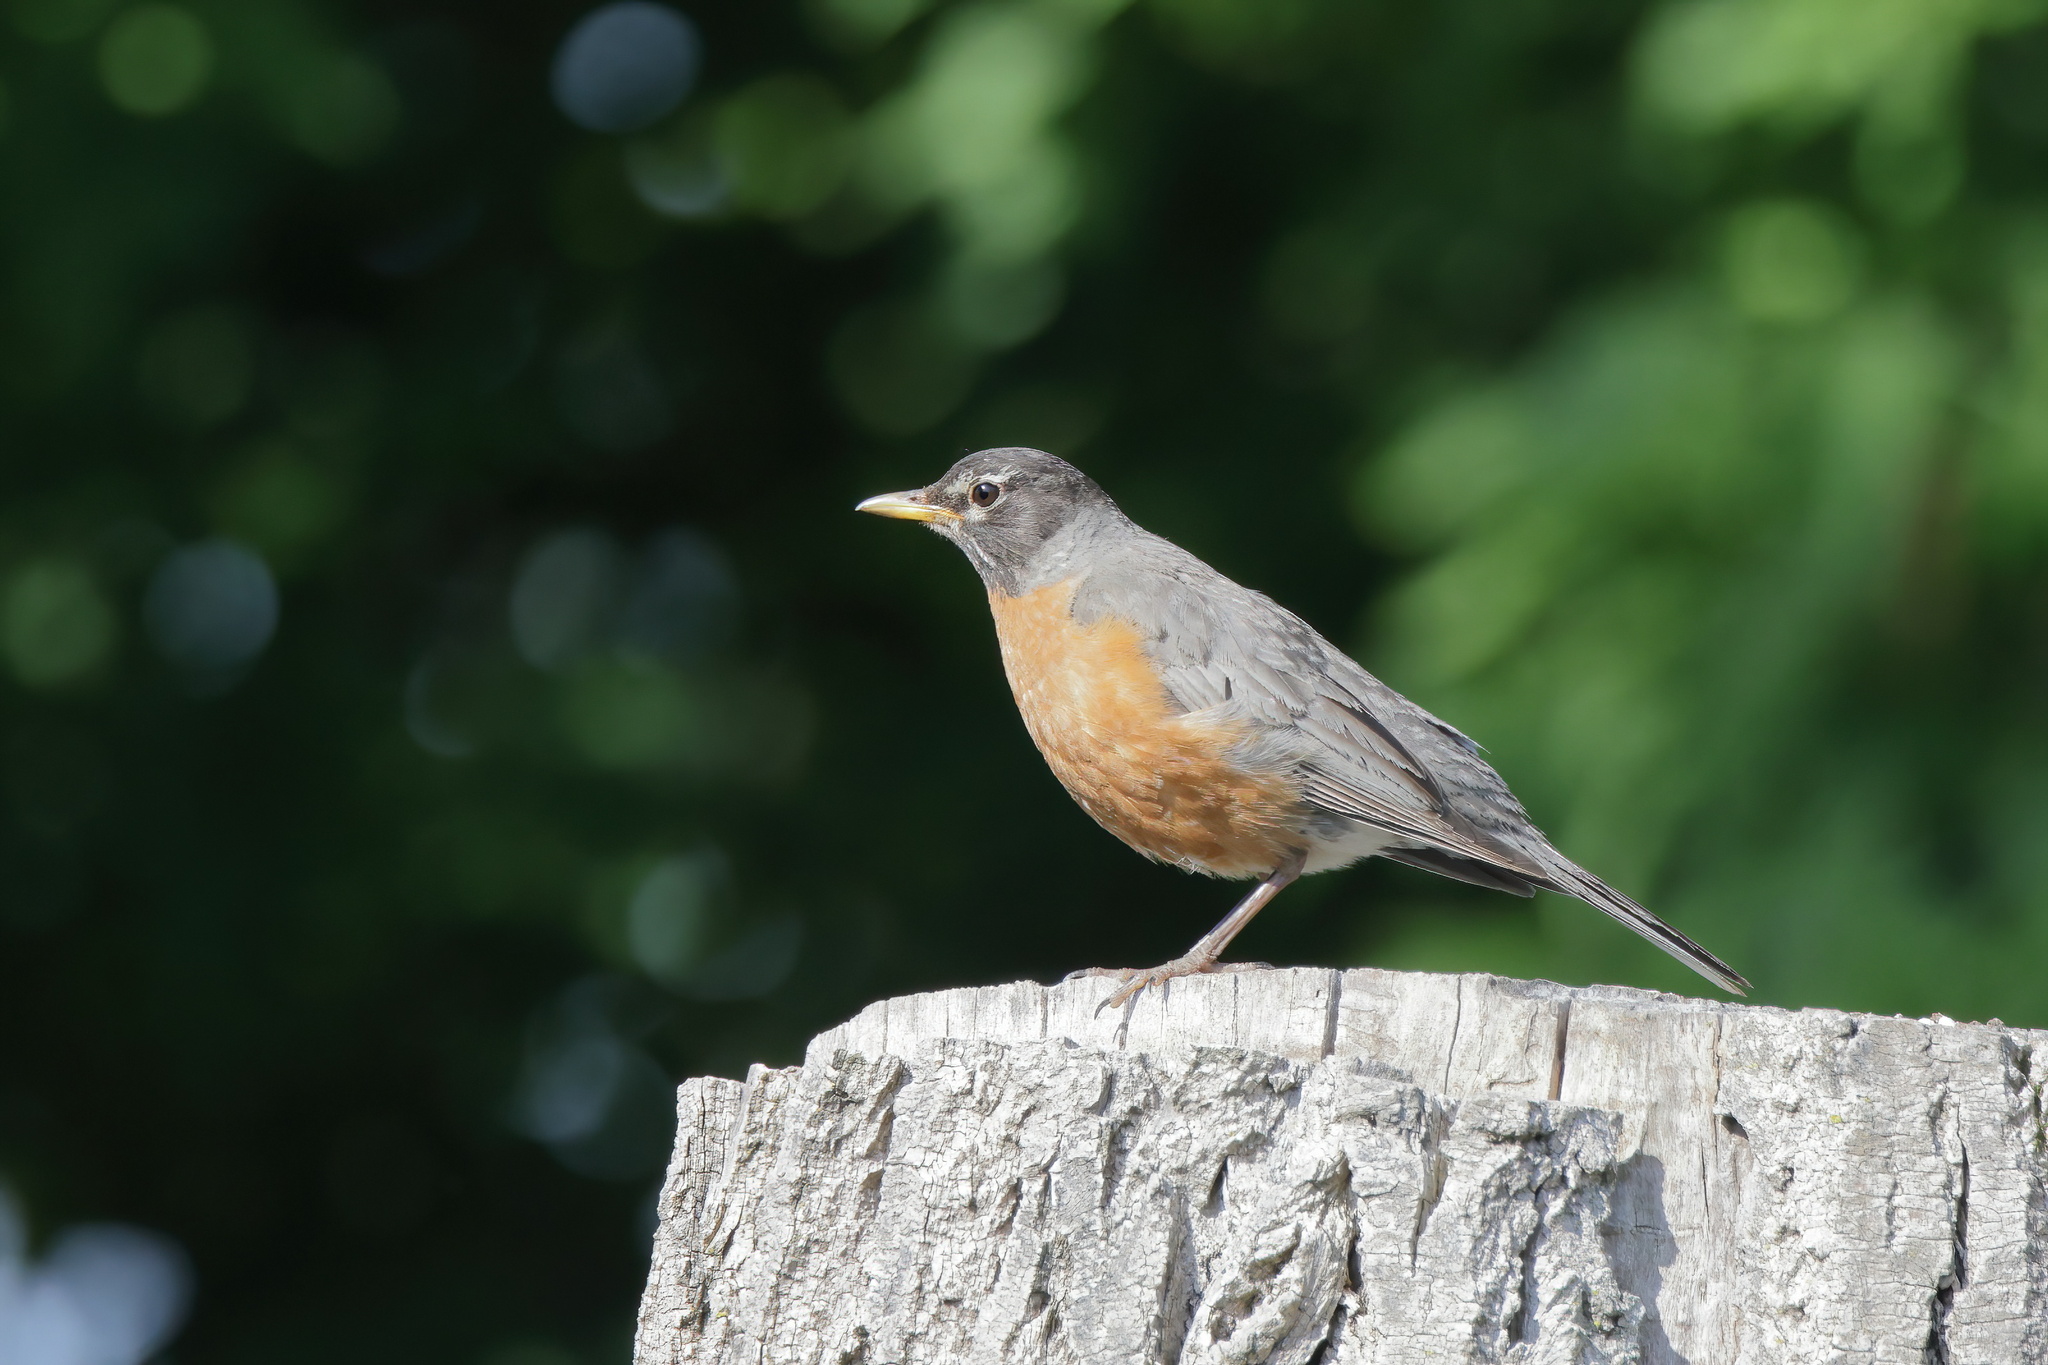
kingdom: Animalia
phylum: Chordata
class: Aves
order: Passeriformes
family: Turdidae
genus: Turdus
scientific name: Turdus migratorius
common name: American robin
